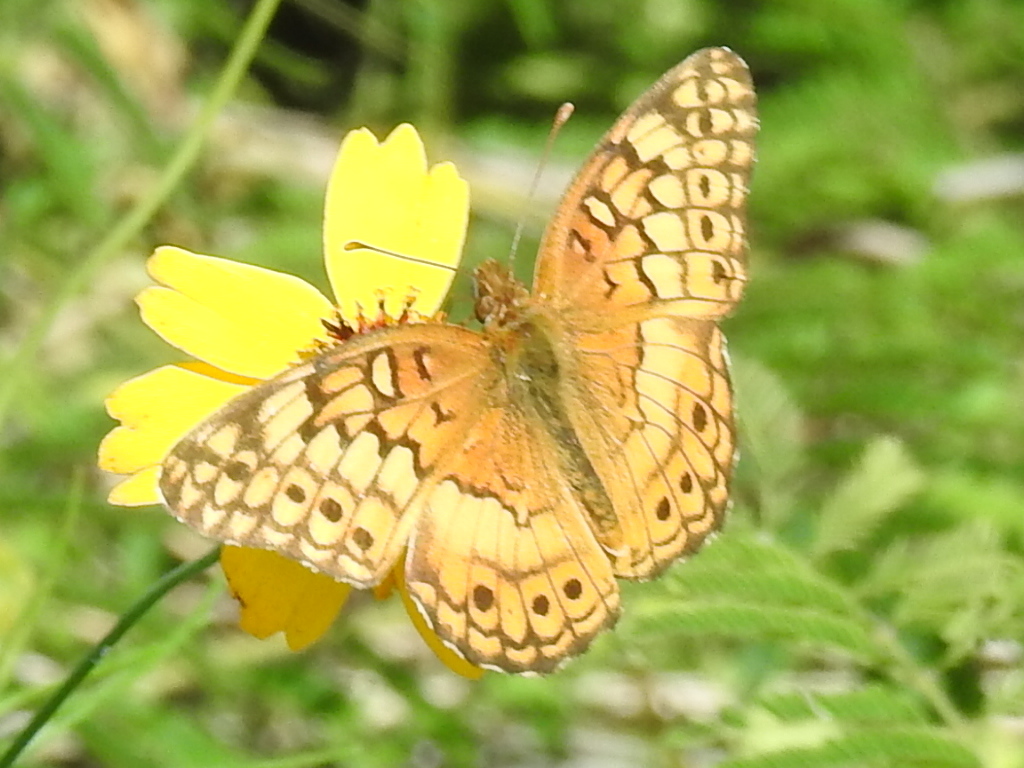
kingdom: Animalia
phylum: Arthropoda
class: Insecta
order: Lepidoptera
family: Nymphalidae
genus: Euptoieta
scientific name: Euptoieta claudia
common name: Variegated fritillary
